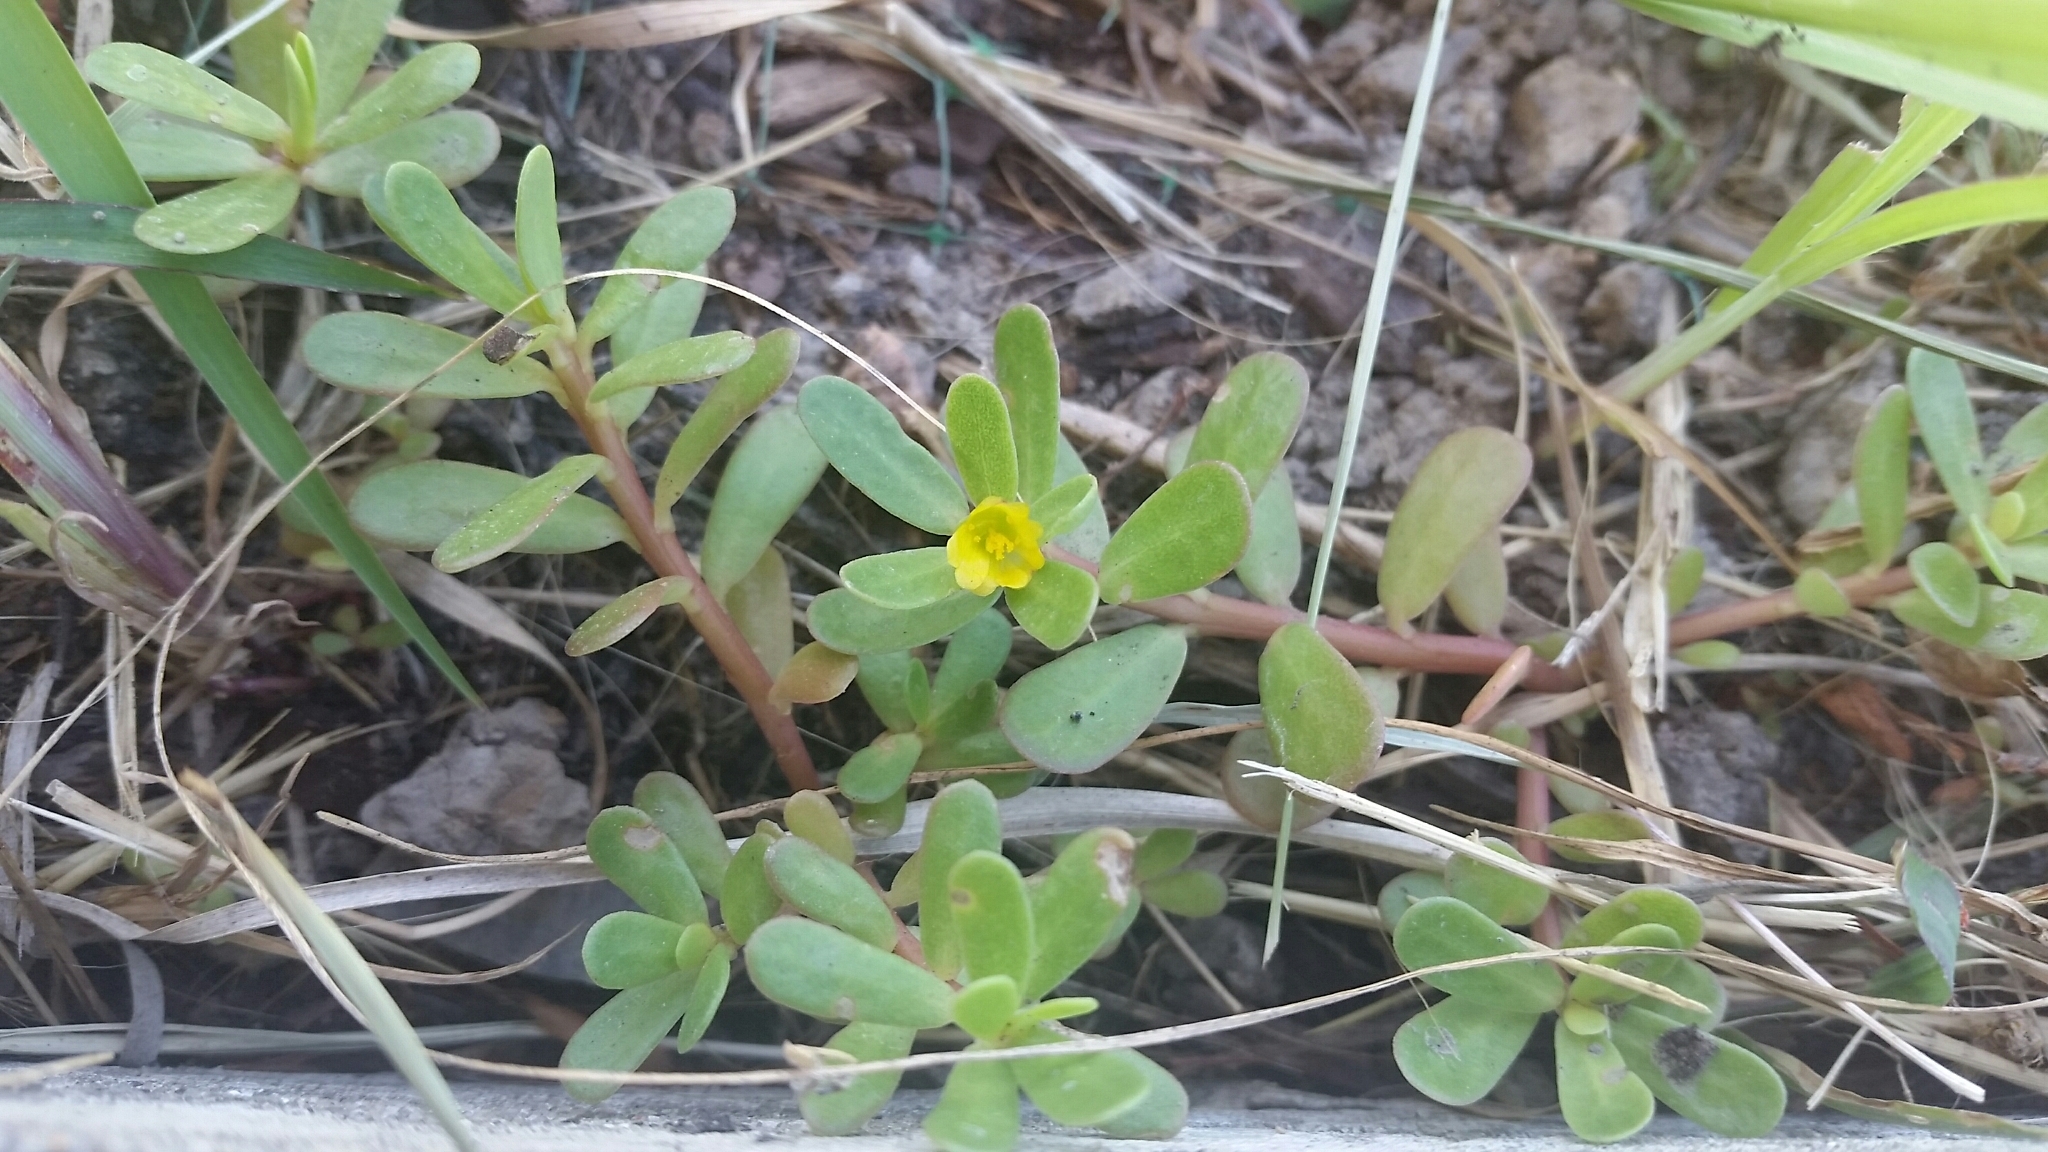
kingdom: Plantae
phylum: Tracheophyta
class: Magnoliopsida
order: Caryophyllales
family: Portulacaceae
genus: Portulaca
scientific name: Portulaca oleracea
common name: Common purslane
